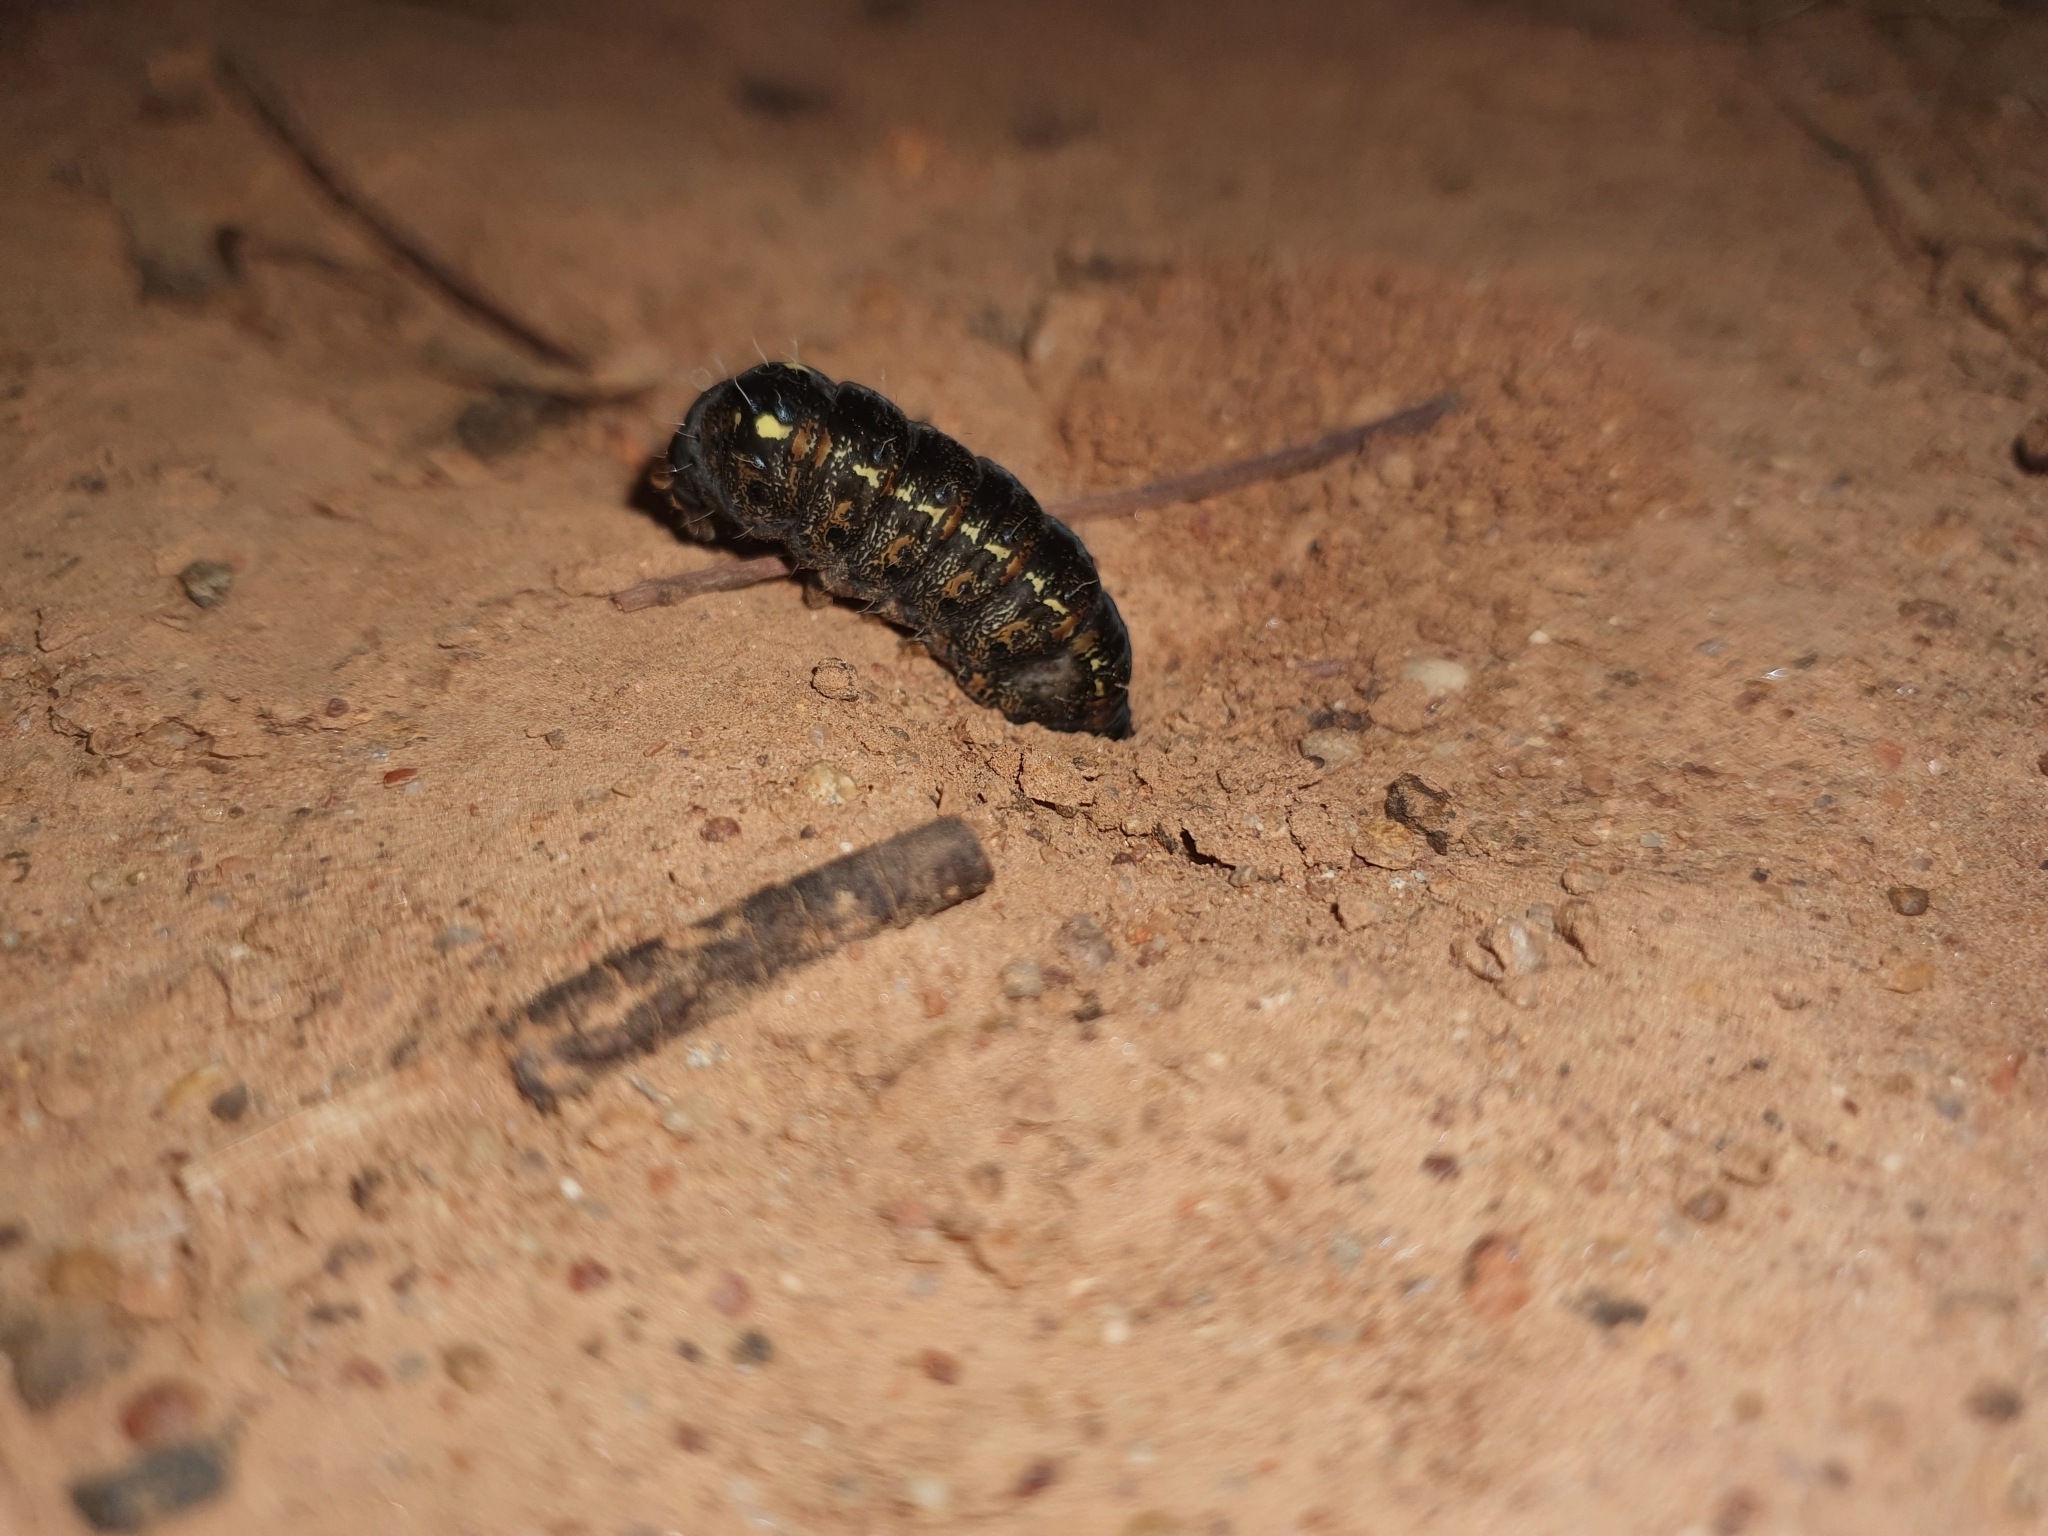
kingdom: Animalia
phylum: Arthropoda
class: Insecta
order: Lepidoptera
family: Noctuidae
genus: Apina
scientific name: Apina callisto
